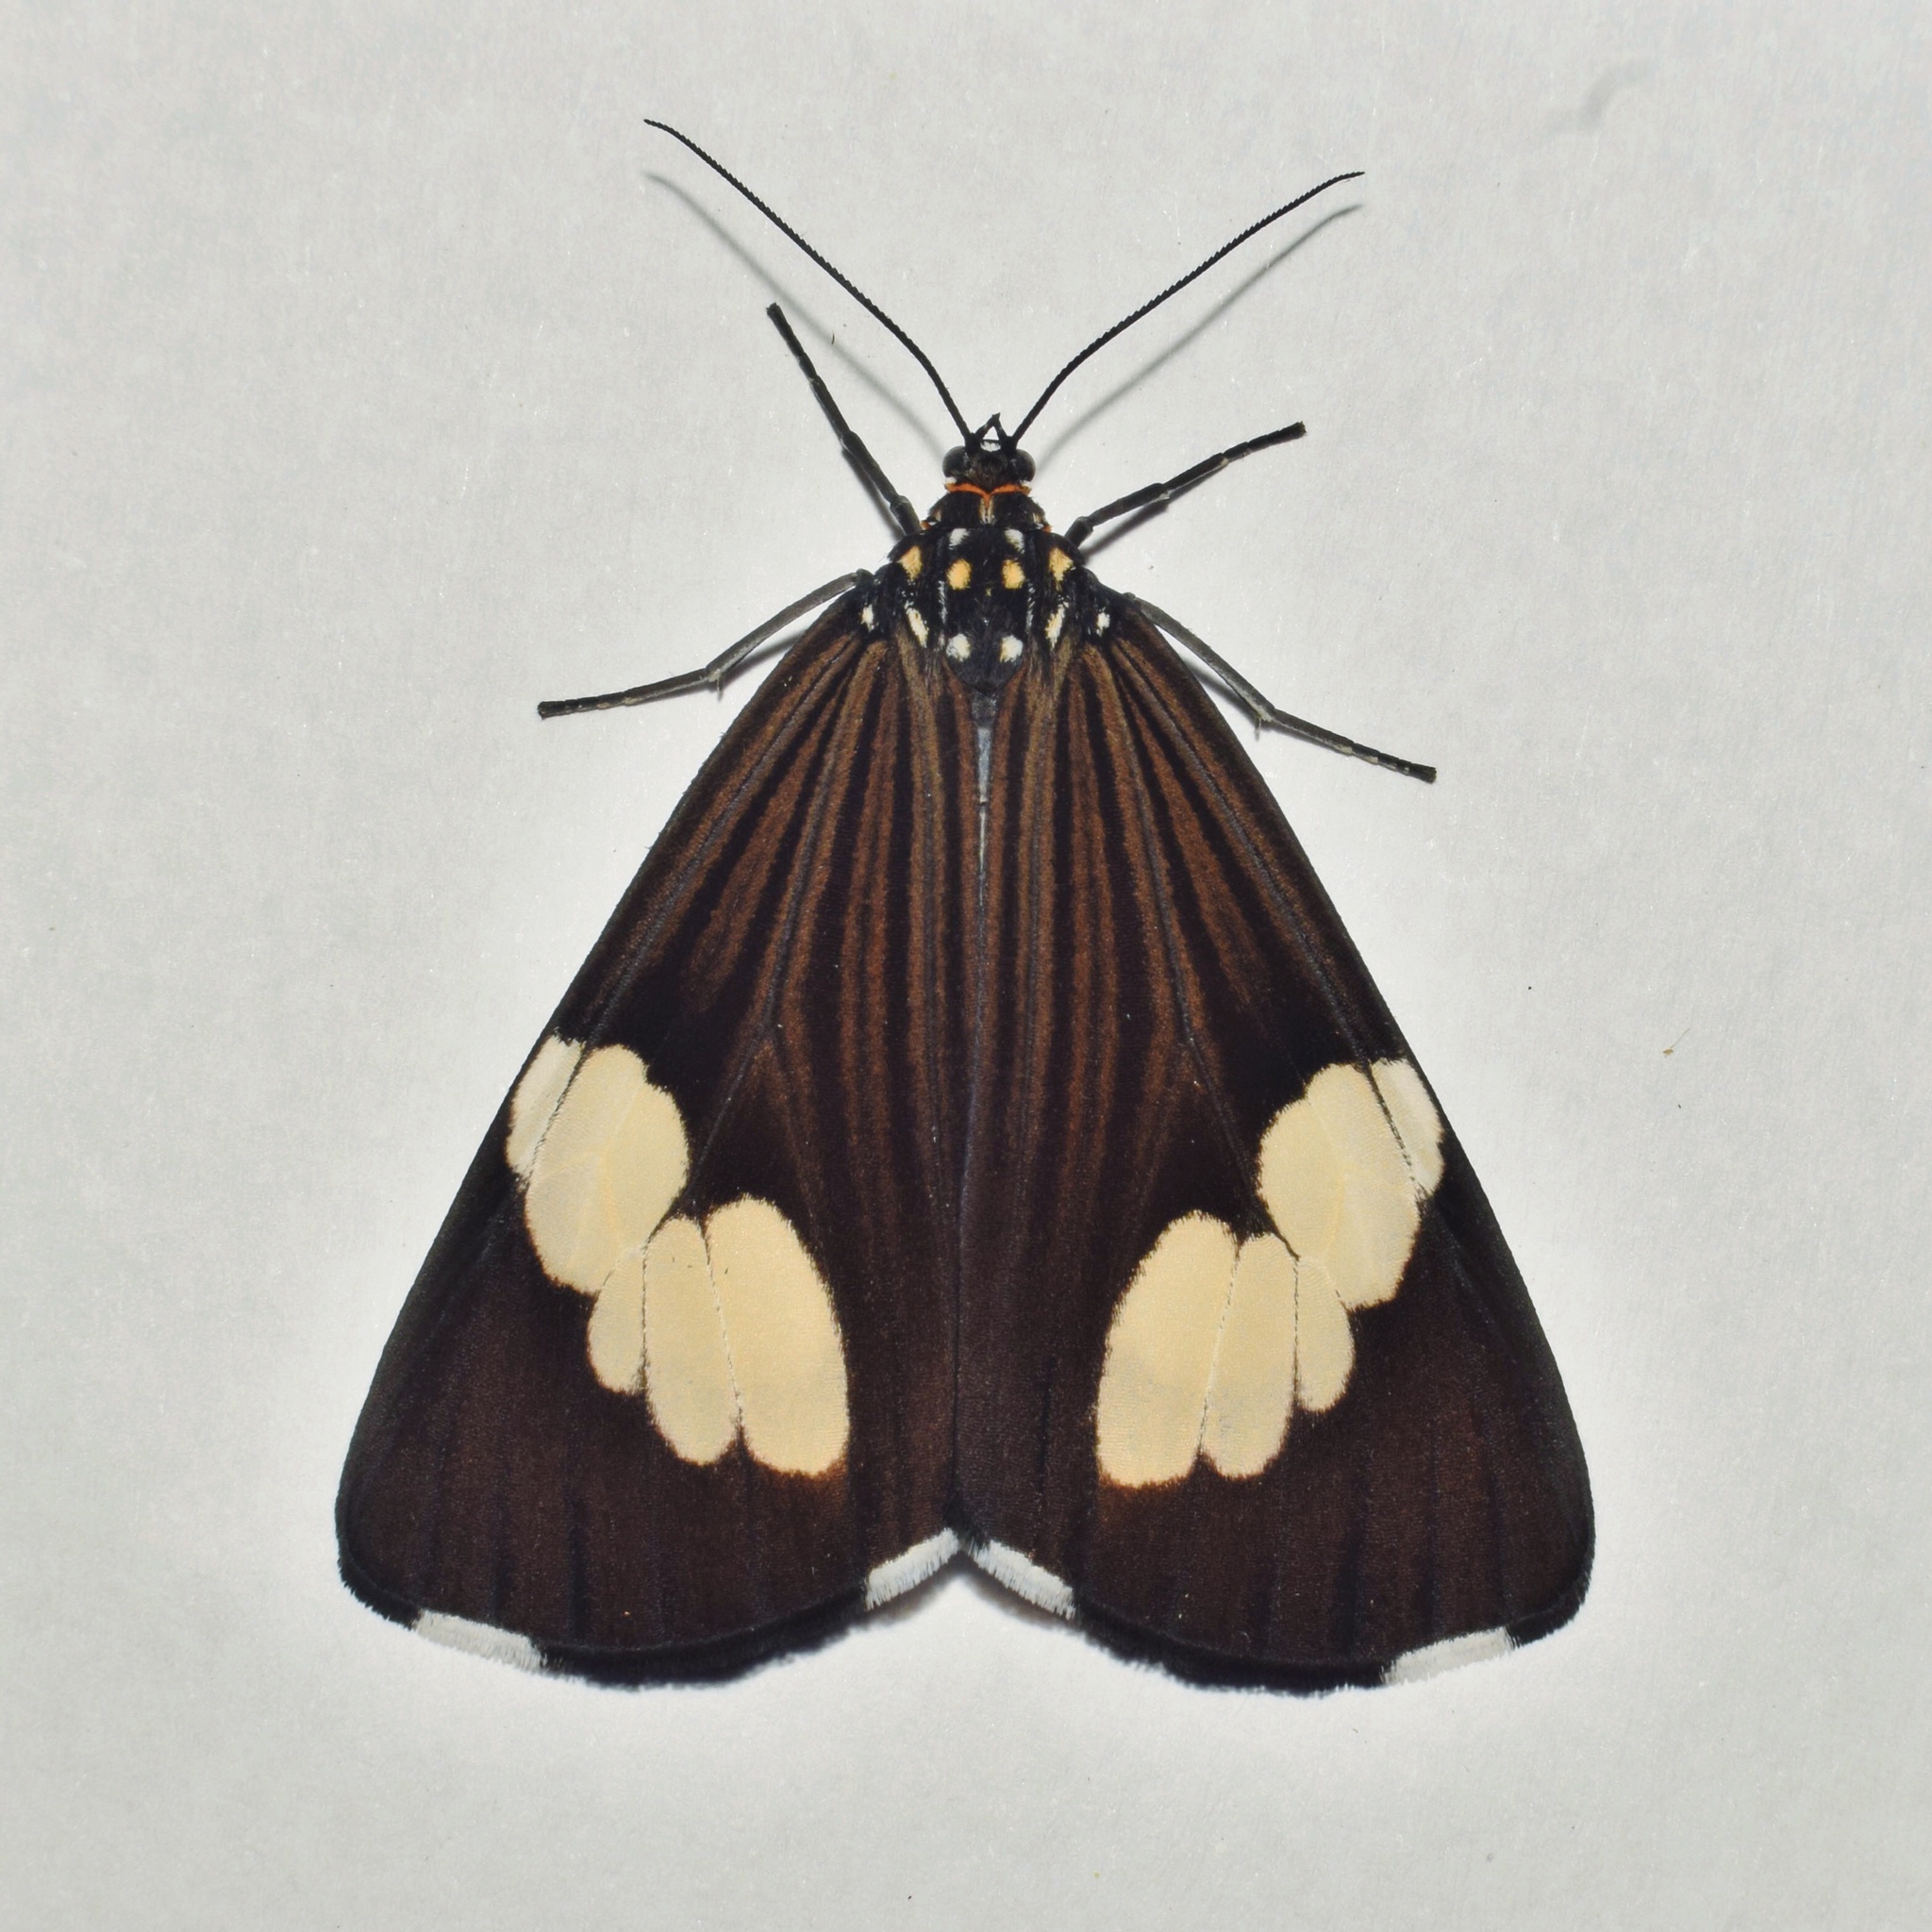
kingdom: Animalia
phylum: Arthropoda
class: Insecta
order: Lepidoptera
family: Erebidae
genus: Nyctemera
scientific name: Nyctemera apicalis
